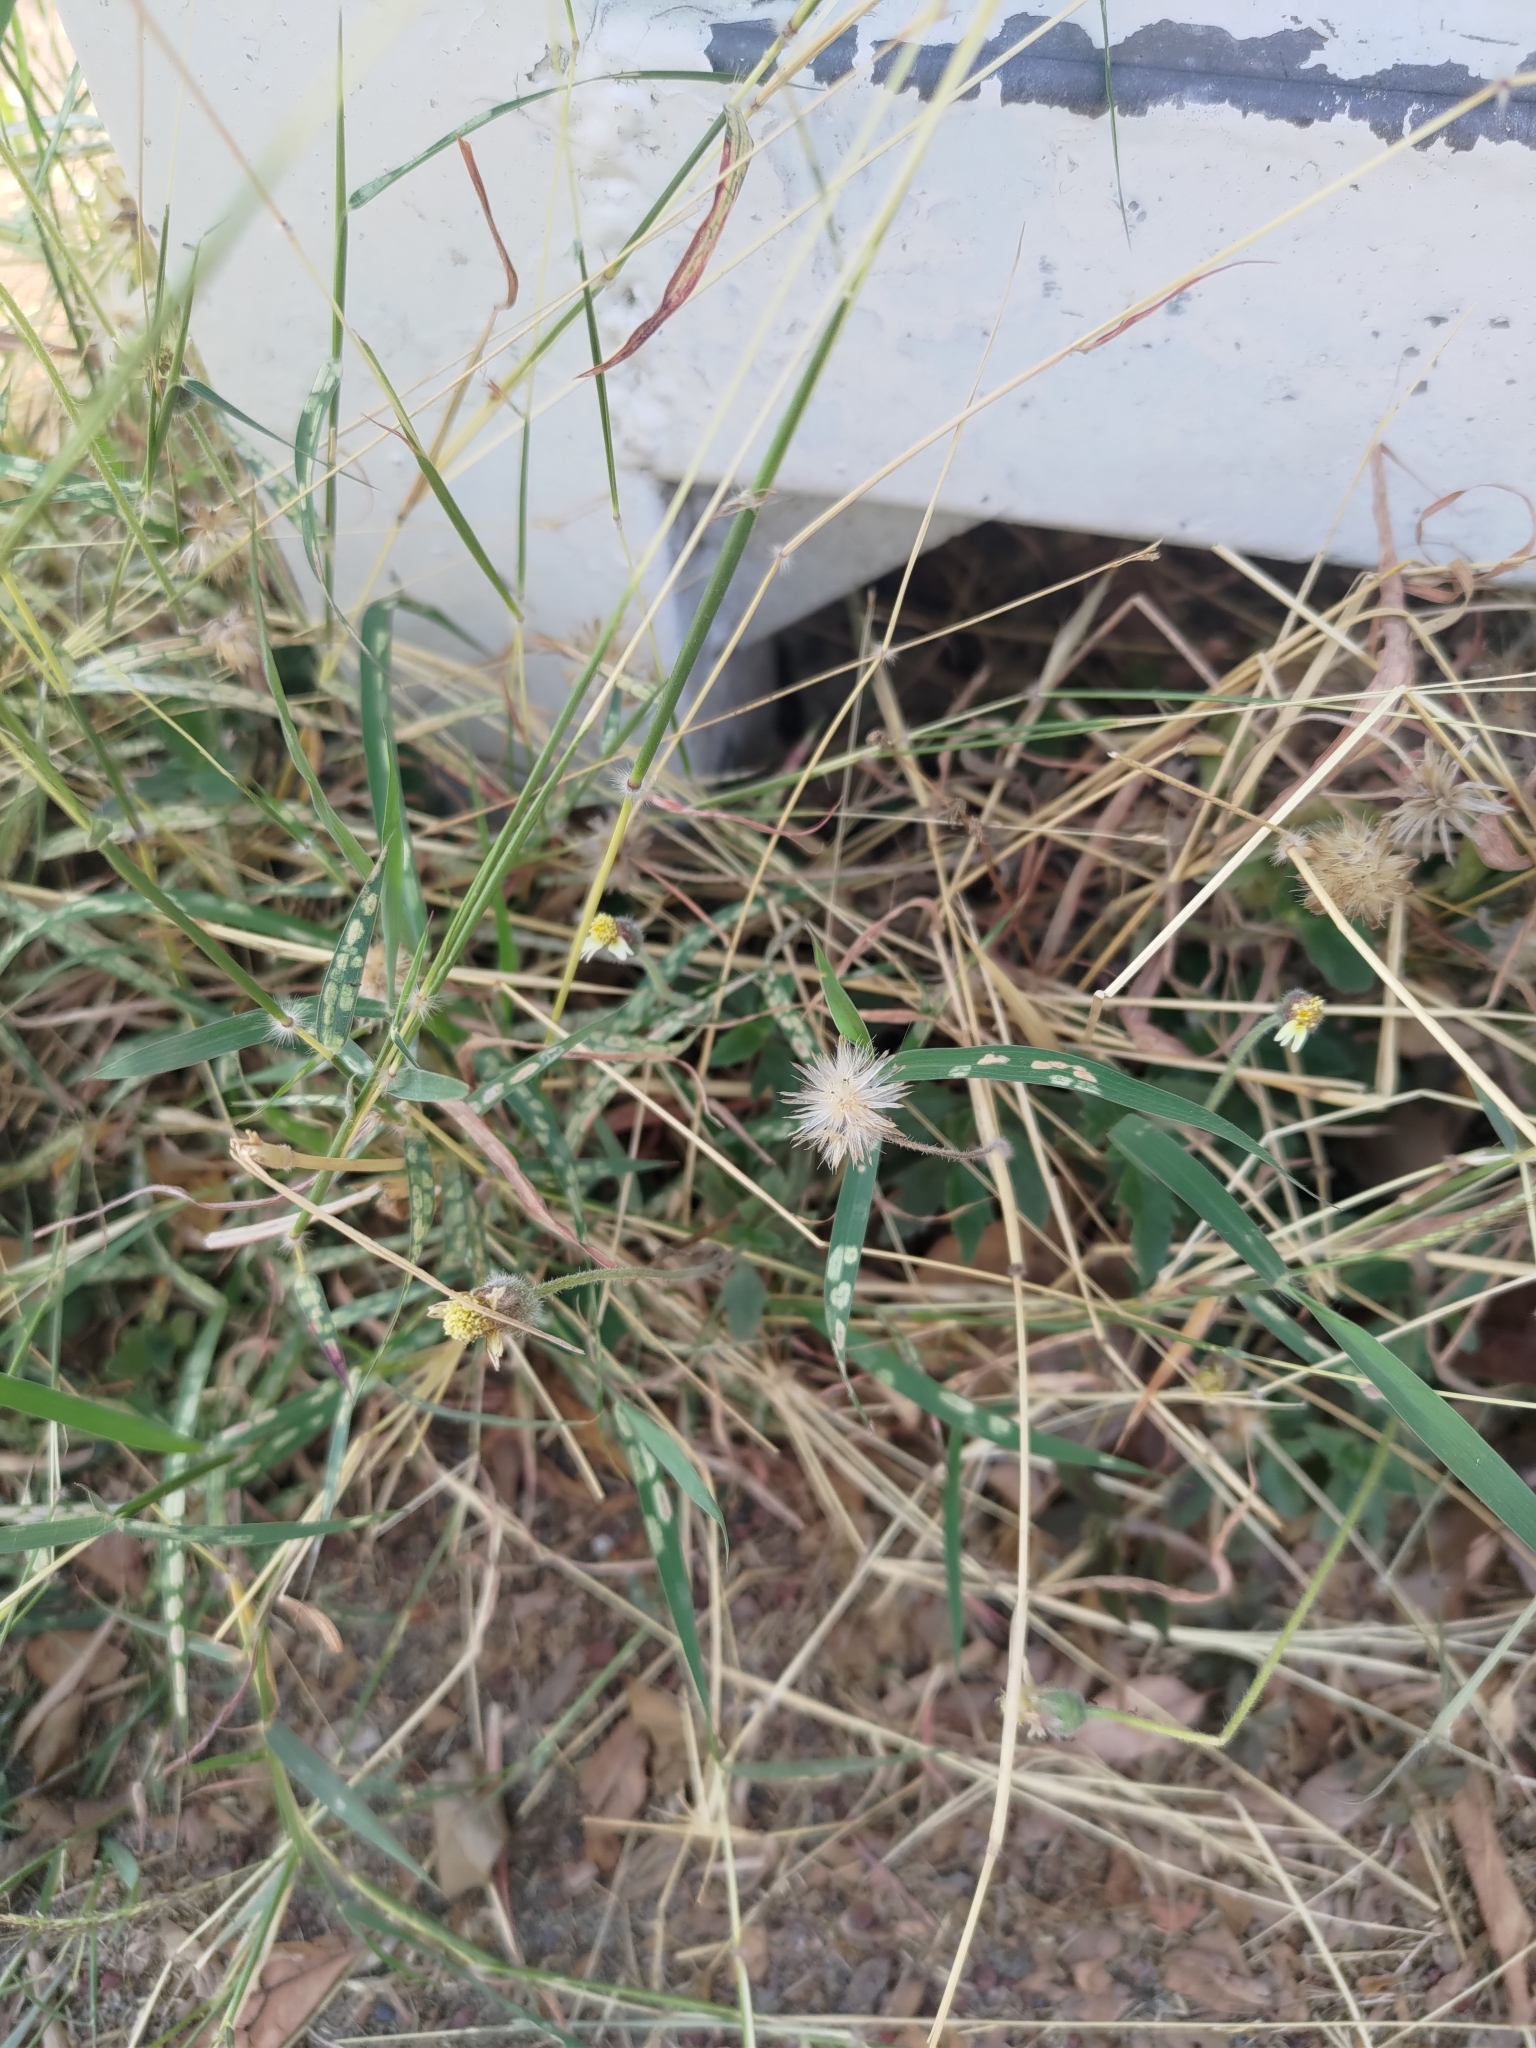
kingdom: Plantae
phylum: Tracheophyta
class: Magnoliopsida
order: Asterales
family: Asteraceae
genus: Tridax
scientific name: Tridax procumbens
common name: Coatbuttons
